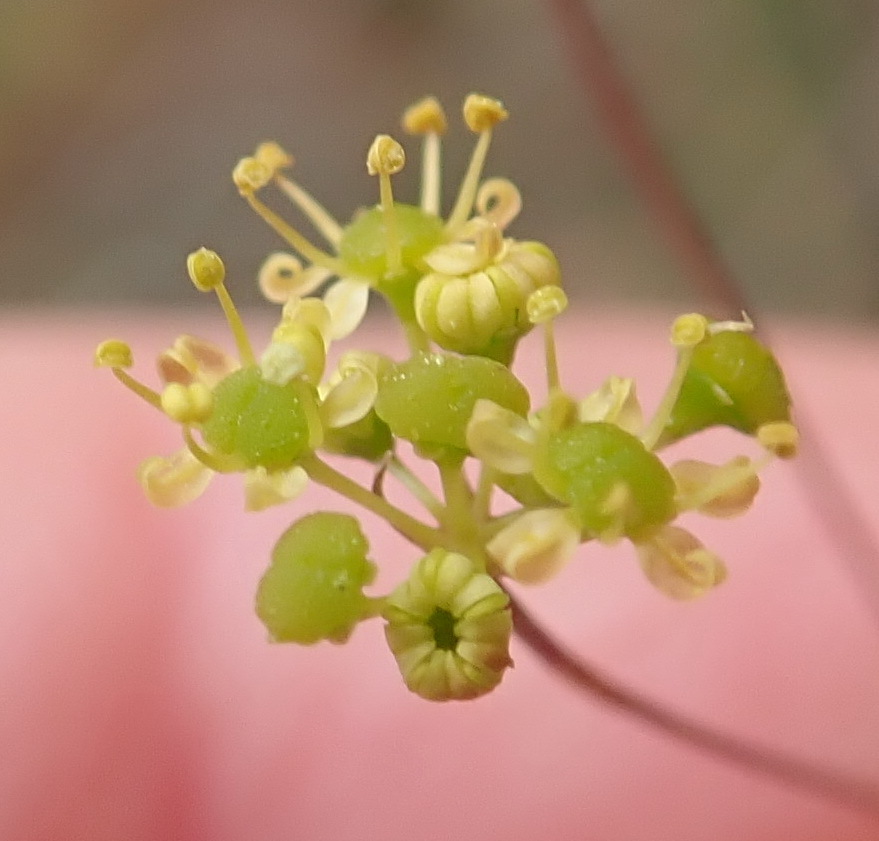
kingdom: Plantae
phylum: Tracheophyta
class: Magnoliopsida
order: Apiales
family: Apiaceae
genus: Chamarea
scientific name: Chamarea capensis
